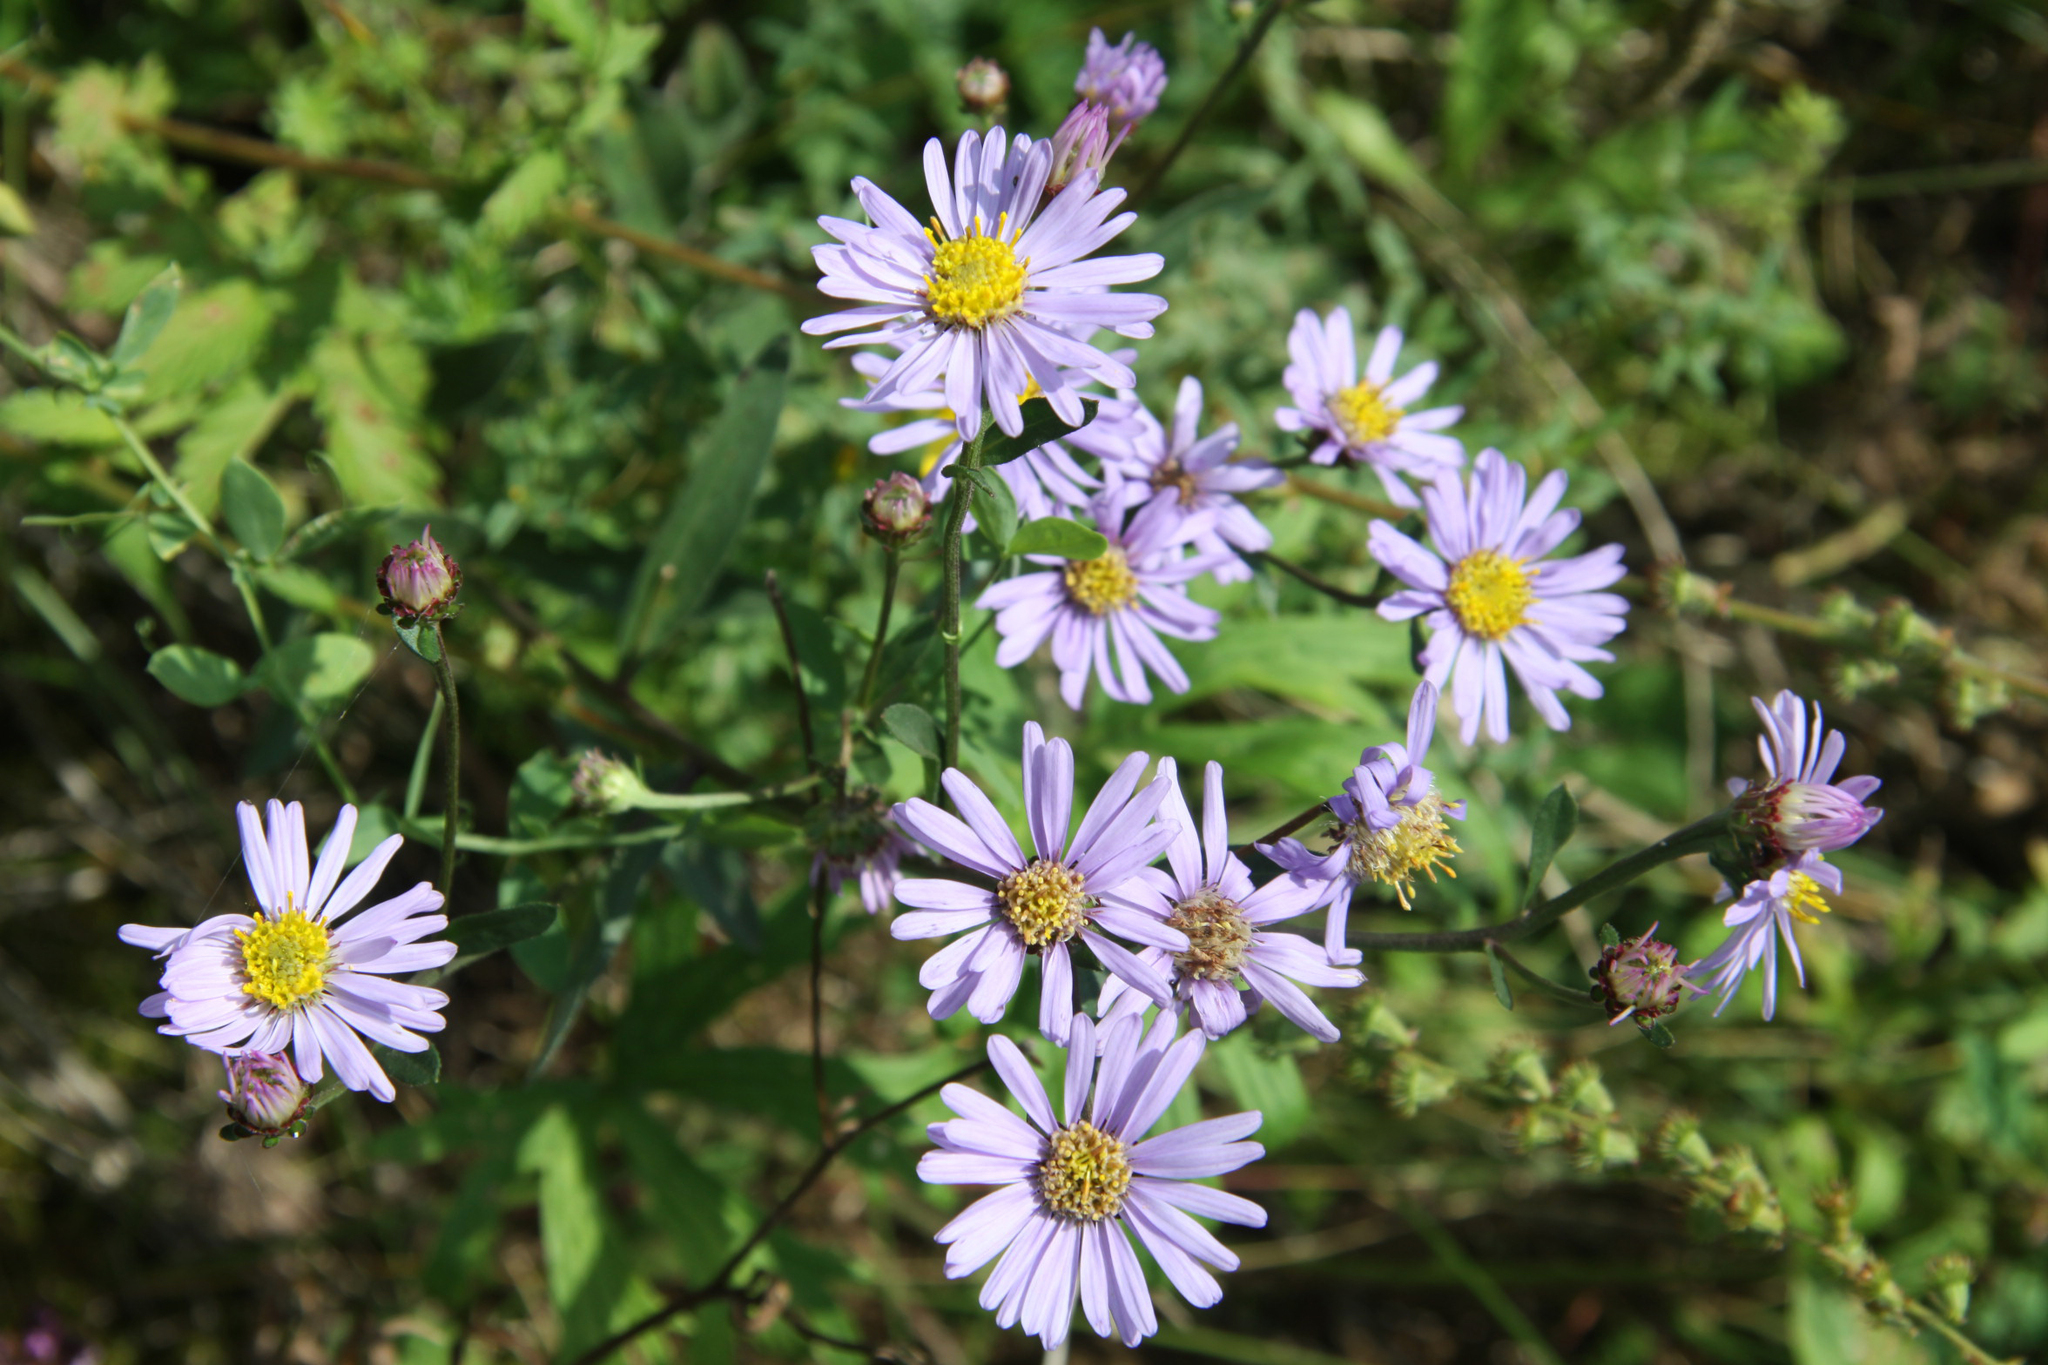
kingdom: Plantae
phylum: Tracheophyta
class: Magnoliopsida
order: Asterales
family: Asteraceae
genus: Aster
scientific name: Aster amellus
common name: European michaelmas daisy
